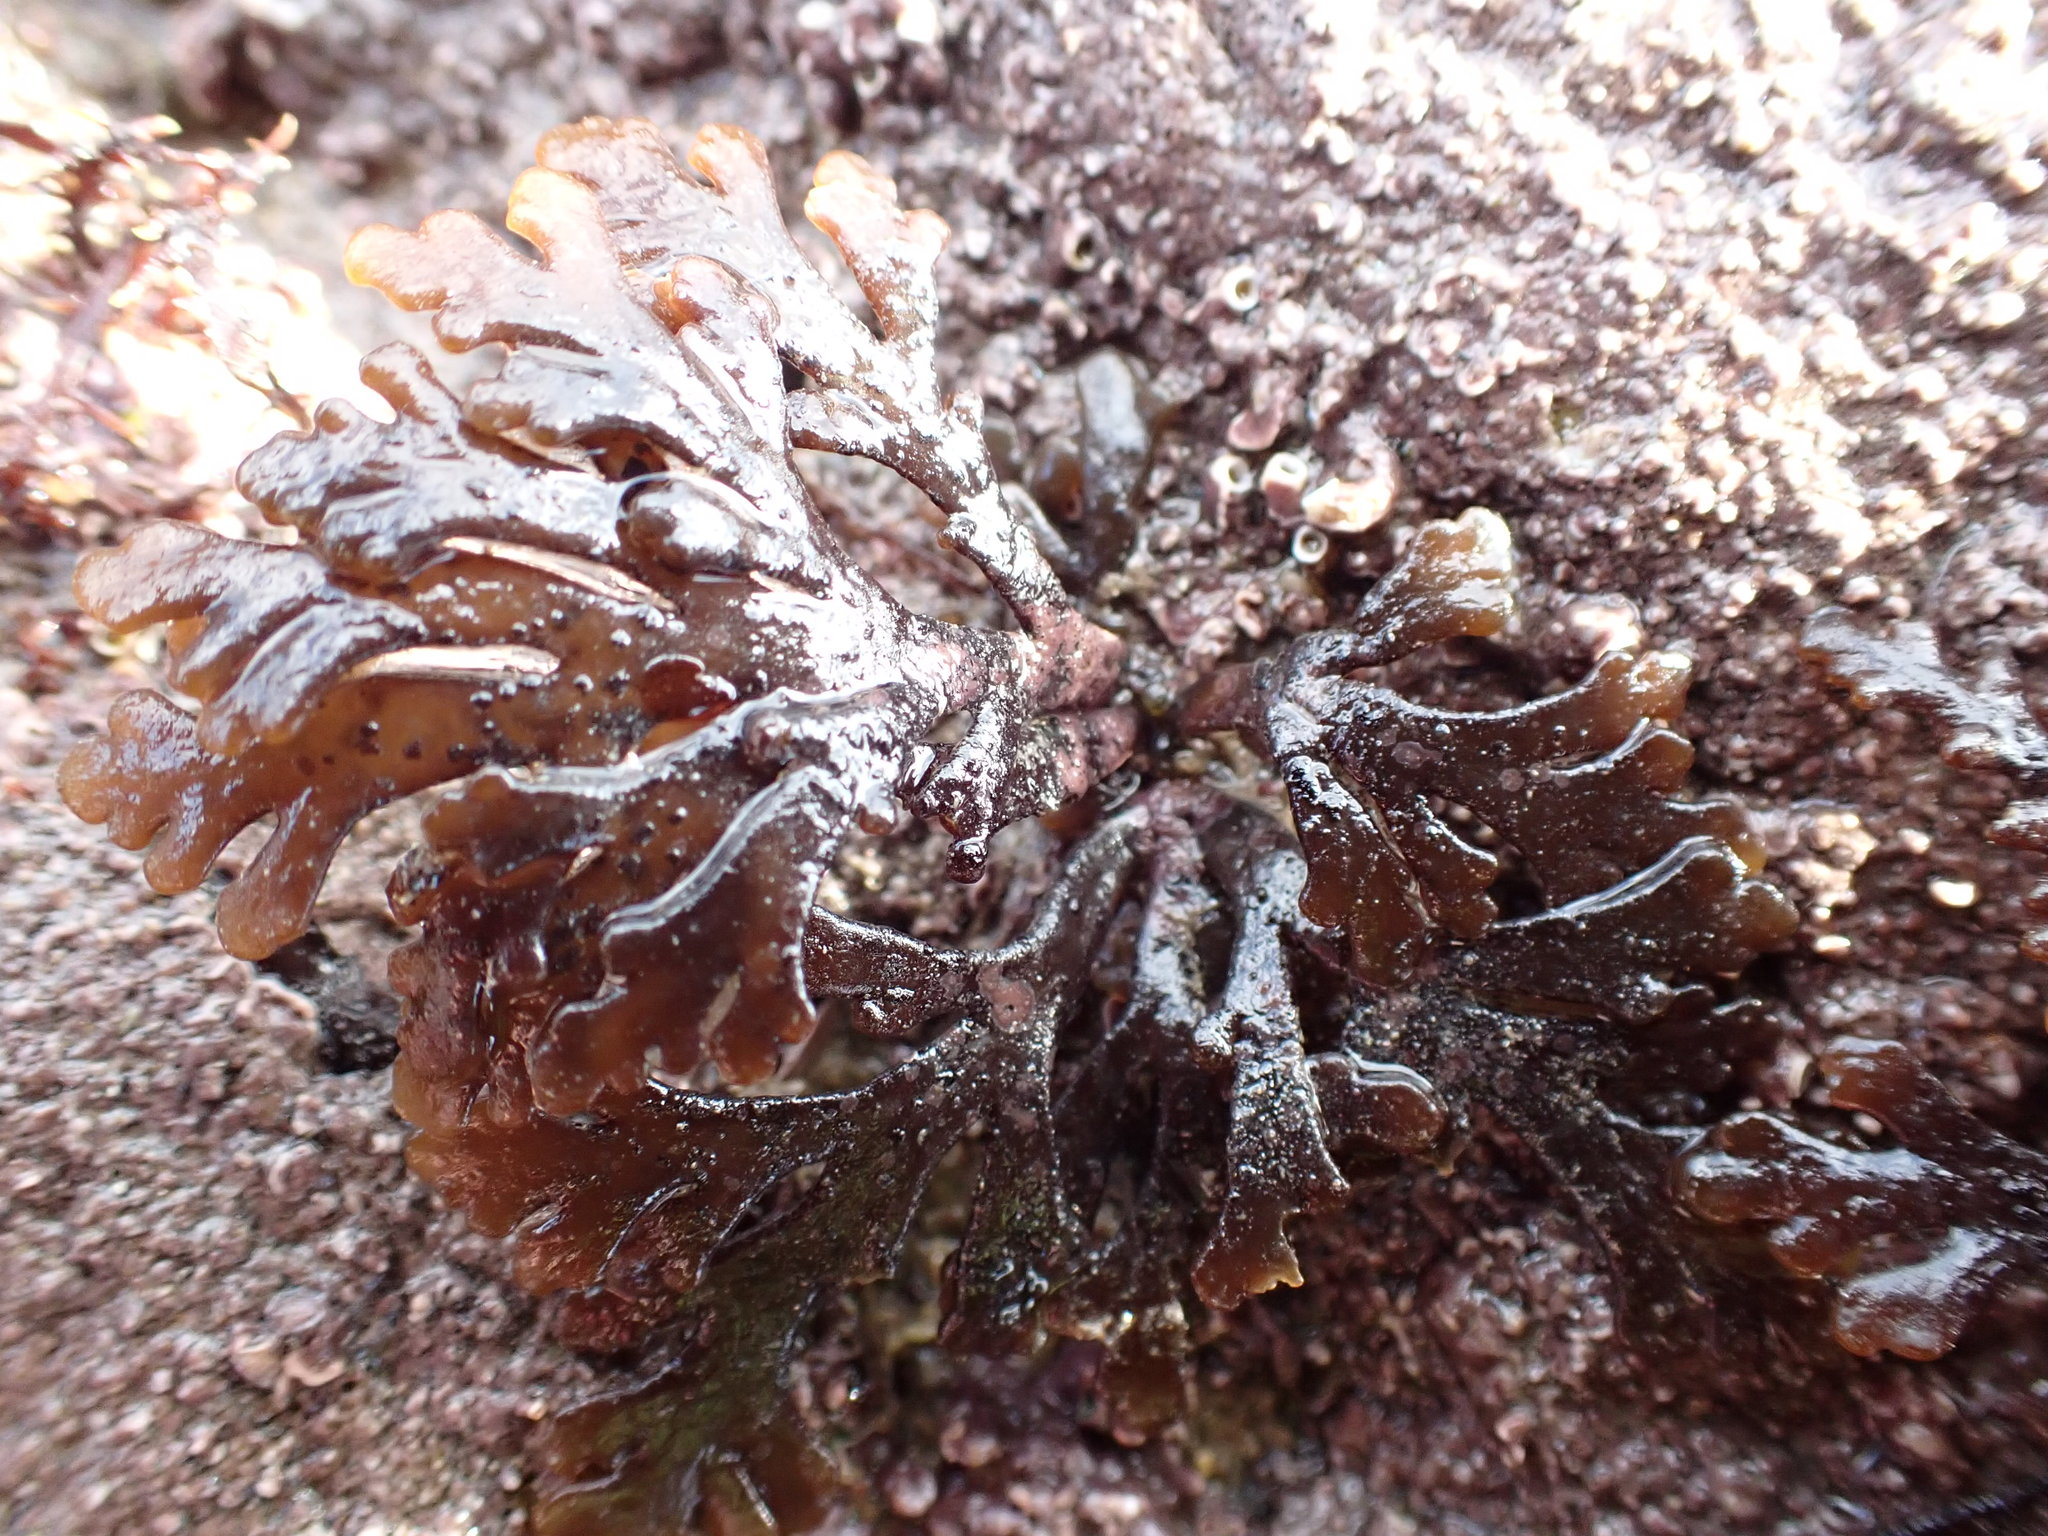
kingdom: Plantae
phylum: Rhodophyta
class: Florideophyceae
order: Ceramiales
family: Rhodomelaceae
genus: Laurencia
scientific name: Laurencia Osmundea pinnatifida
